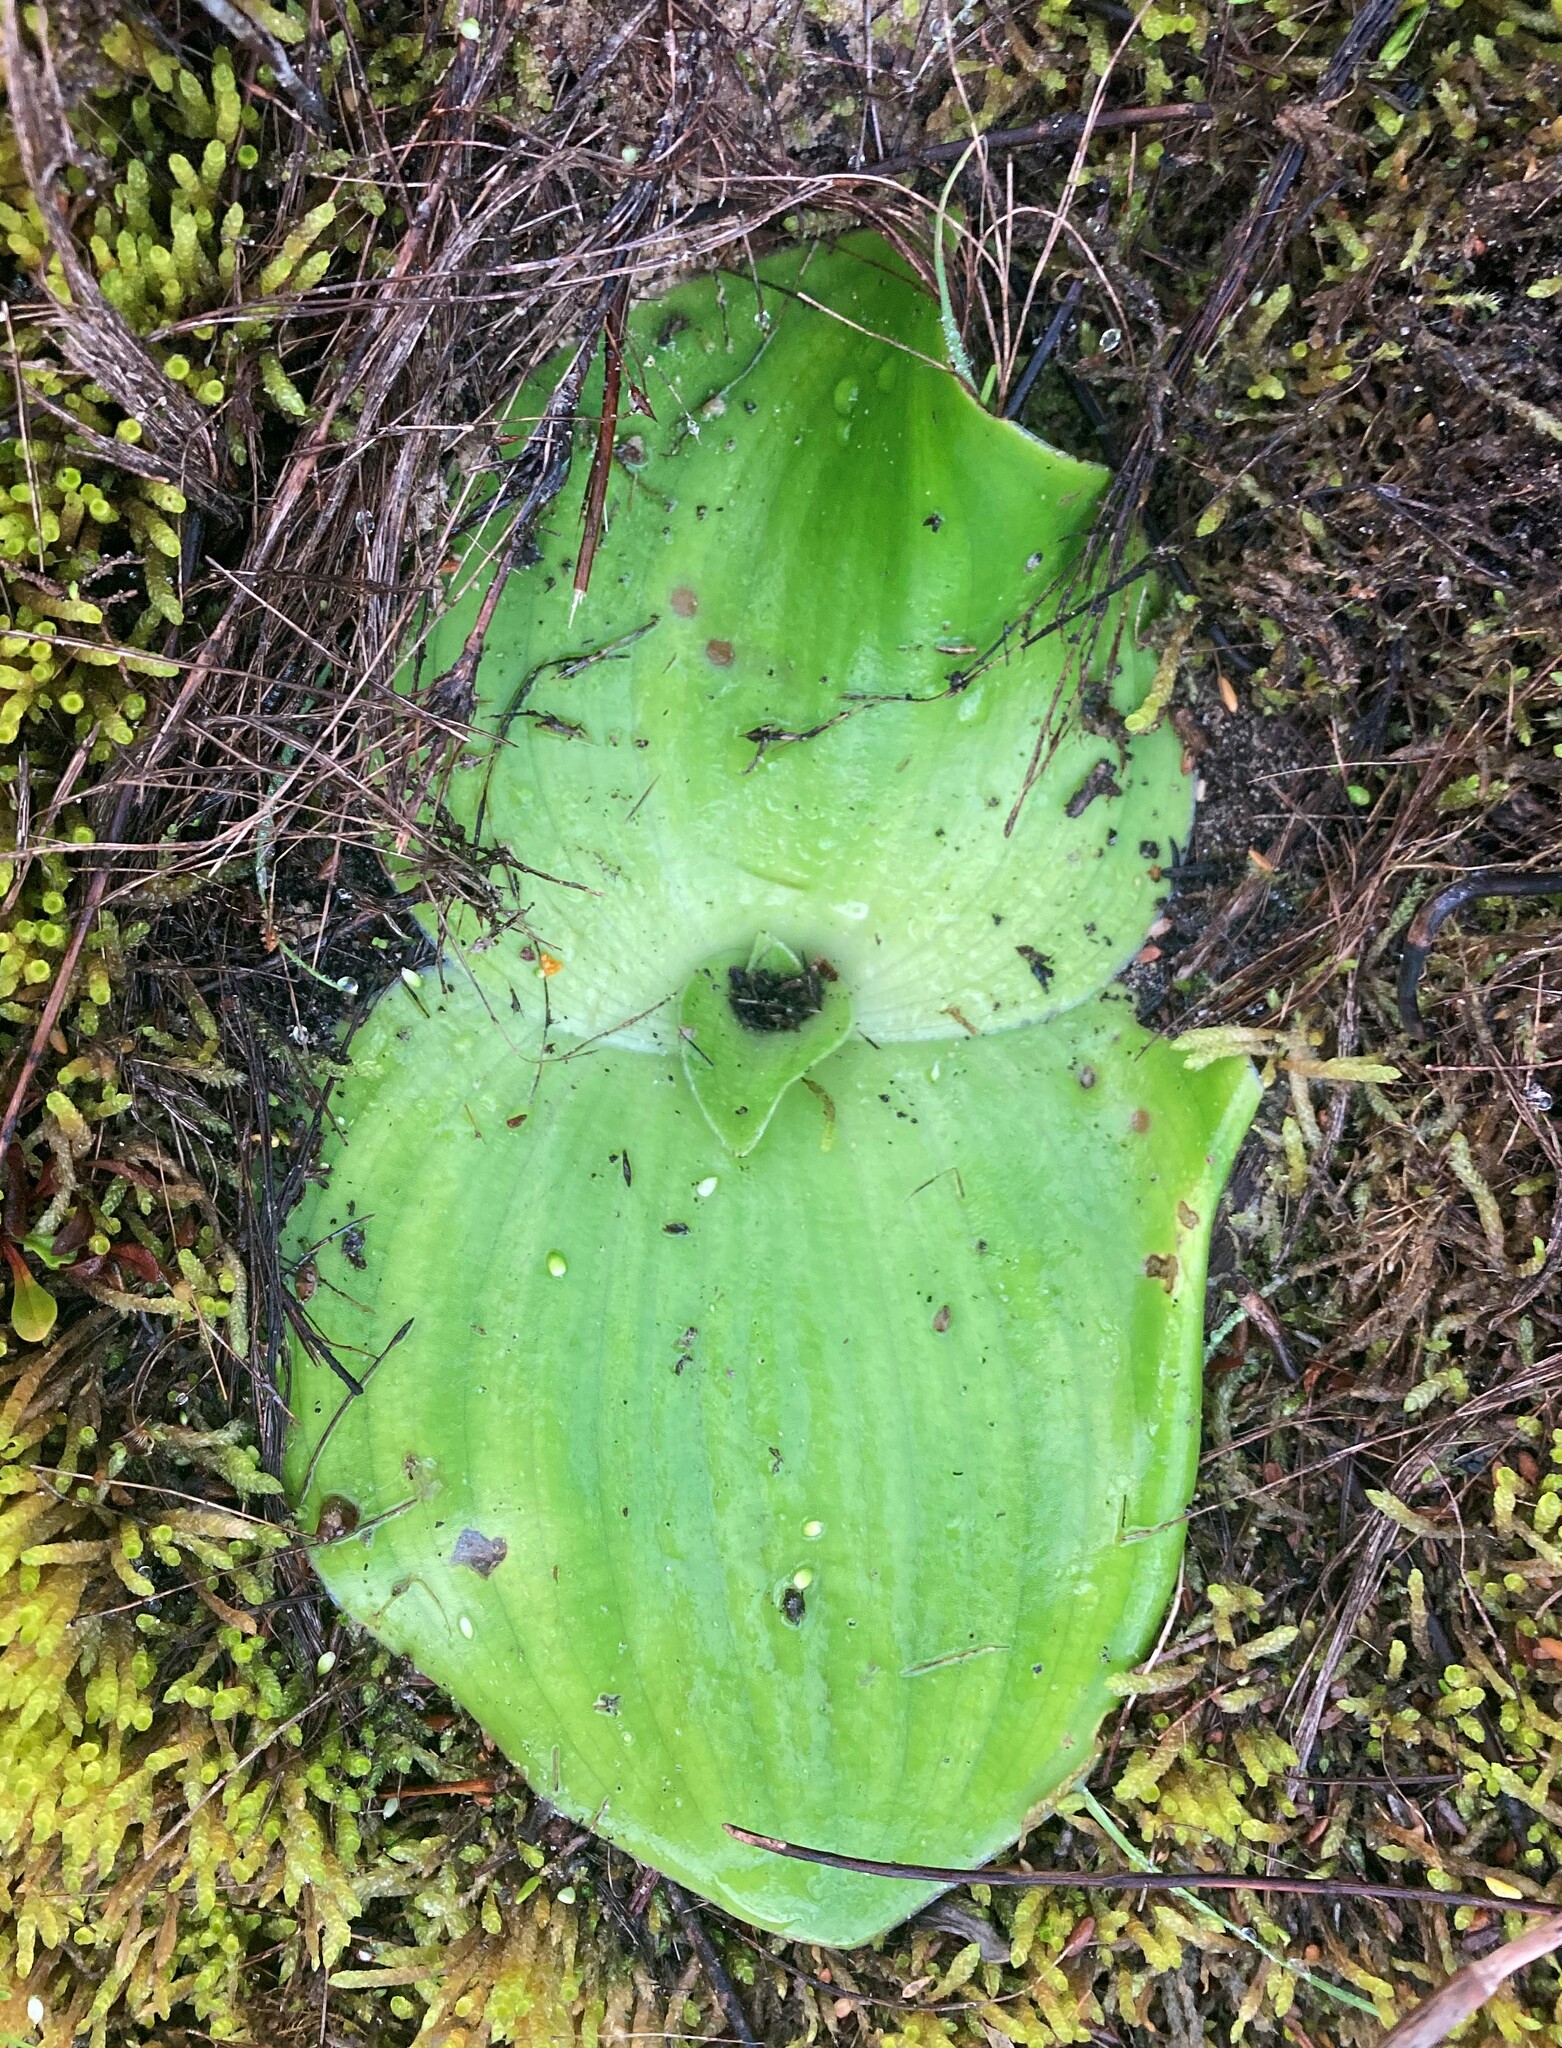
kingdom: Plantae
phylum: Tracheophyta
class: Liliopsida
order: Asparagales
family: Orchidaceae
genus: Satyrium
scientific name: Satyrium princeps
